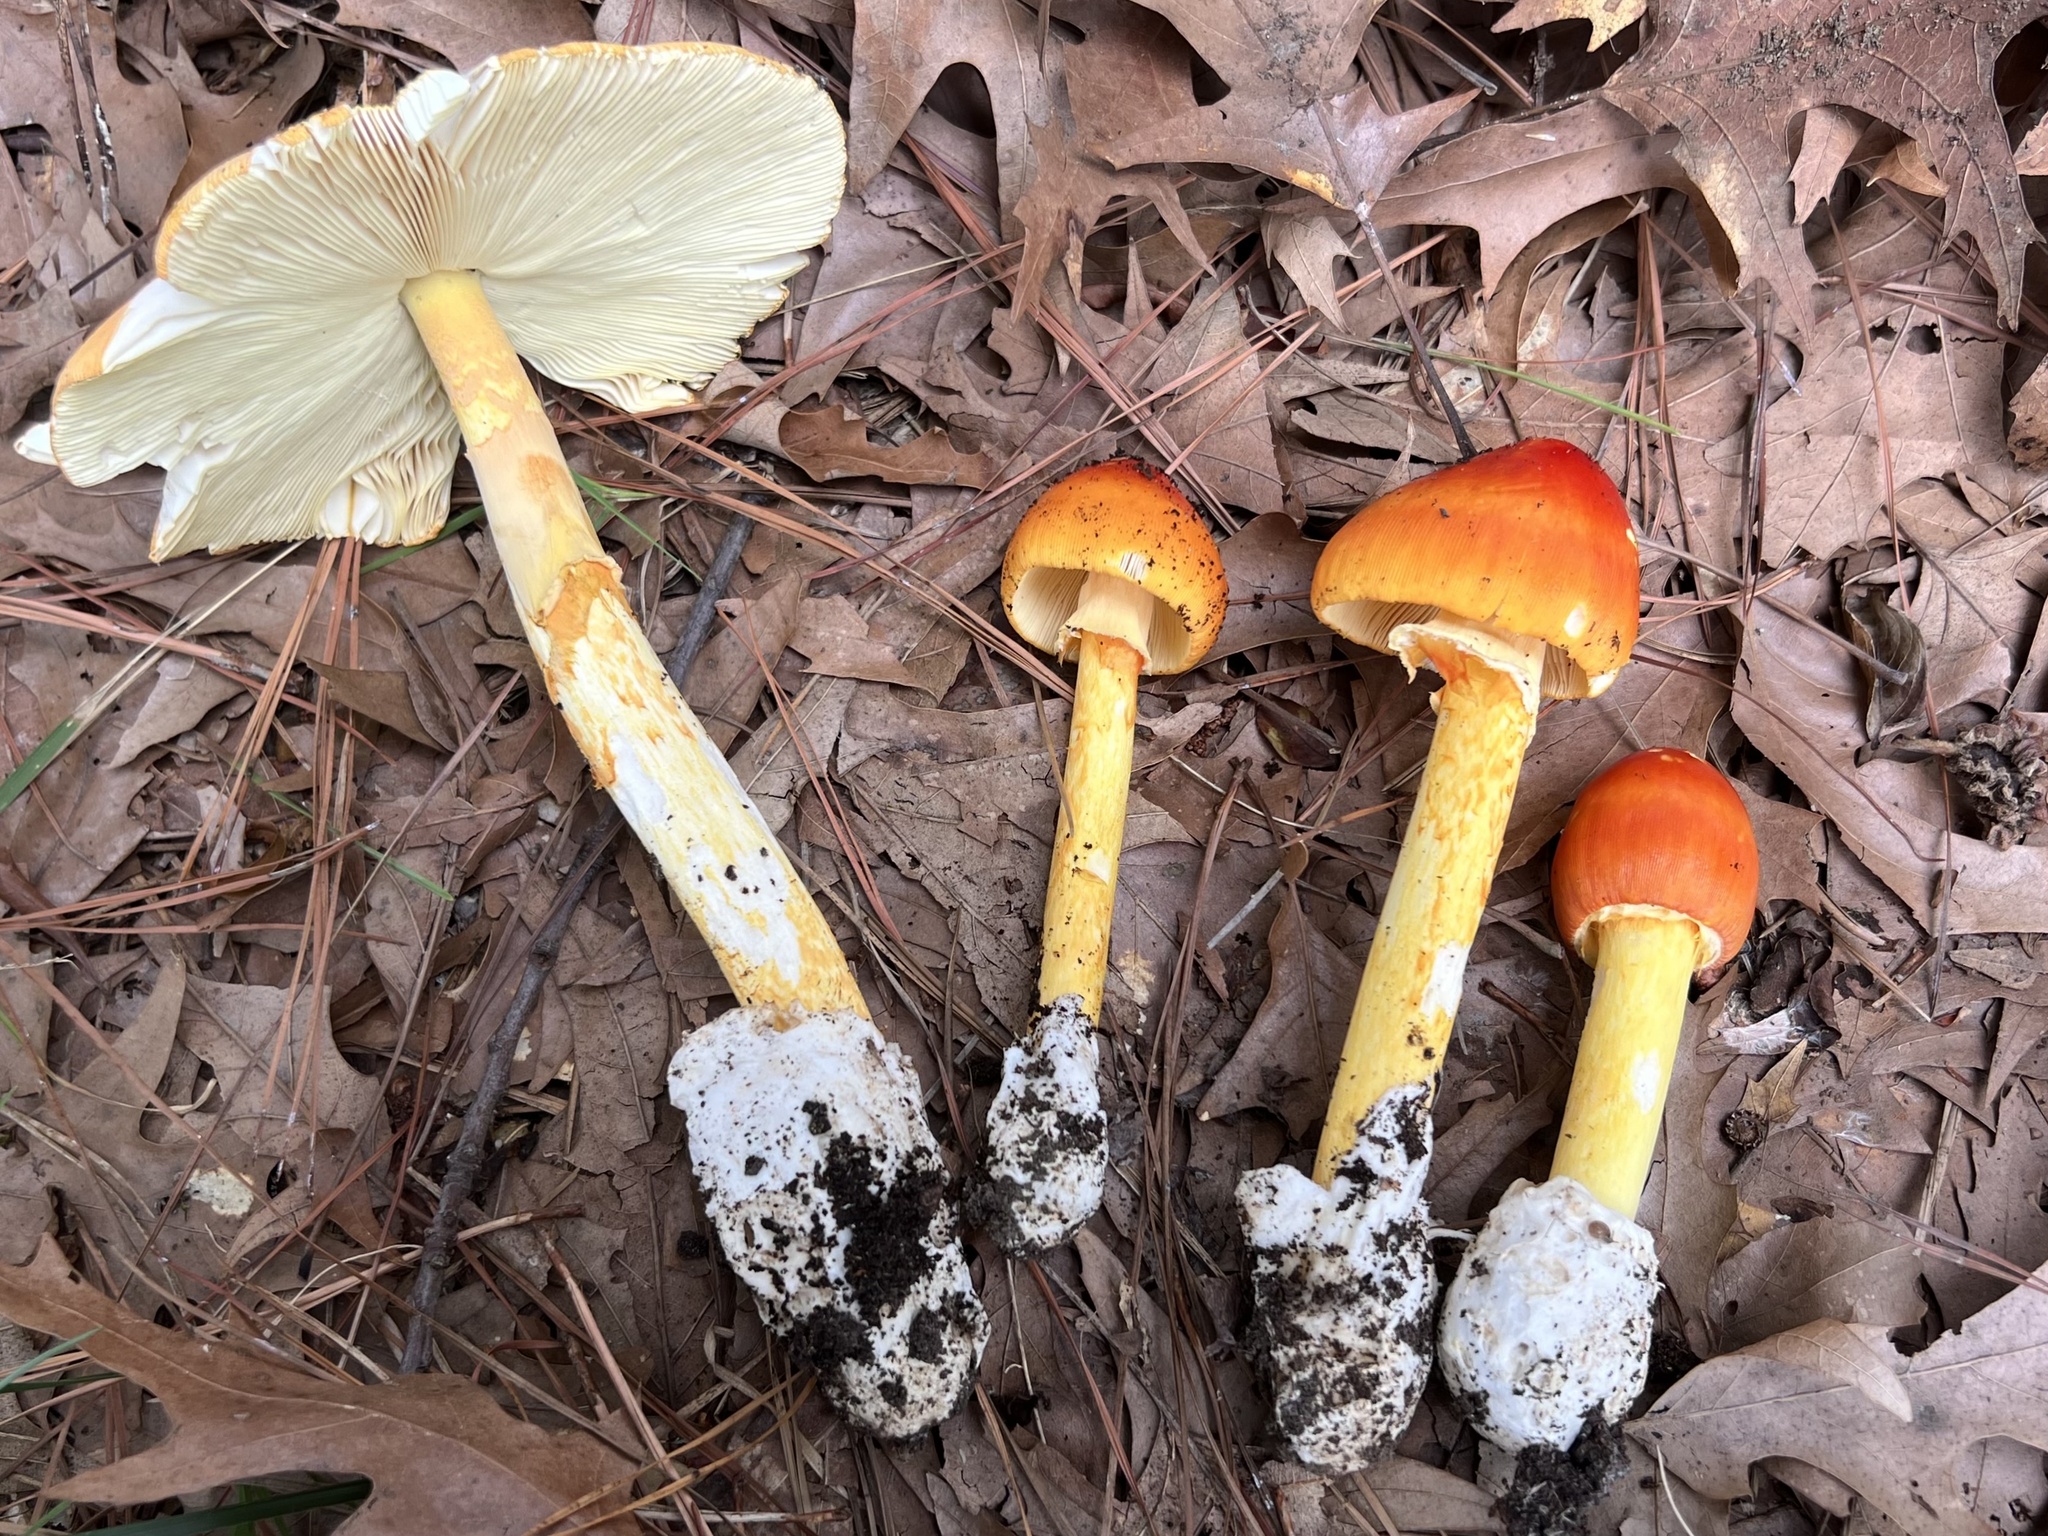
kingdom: Fungi
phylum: Basidiomycota
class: Agaricomycetes
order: Agaricales
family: Amanitaceae
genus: Amanita
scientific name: Amanita jacksonii
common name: Jackson's slender caesar
